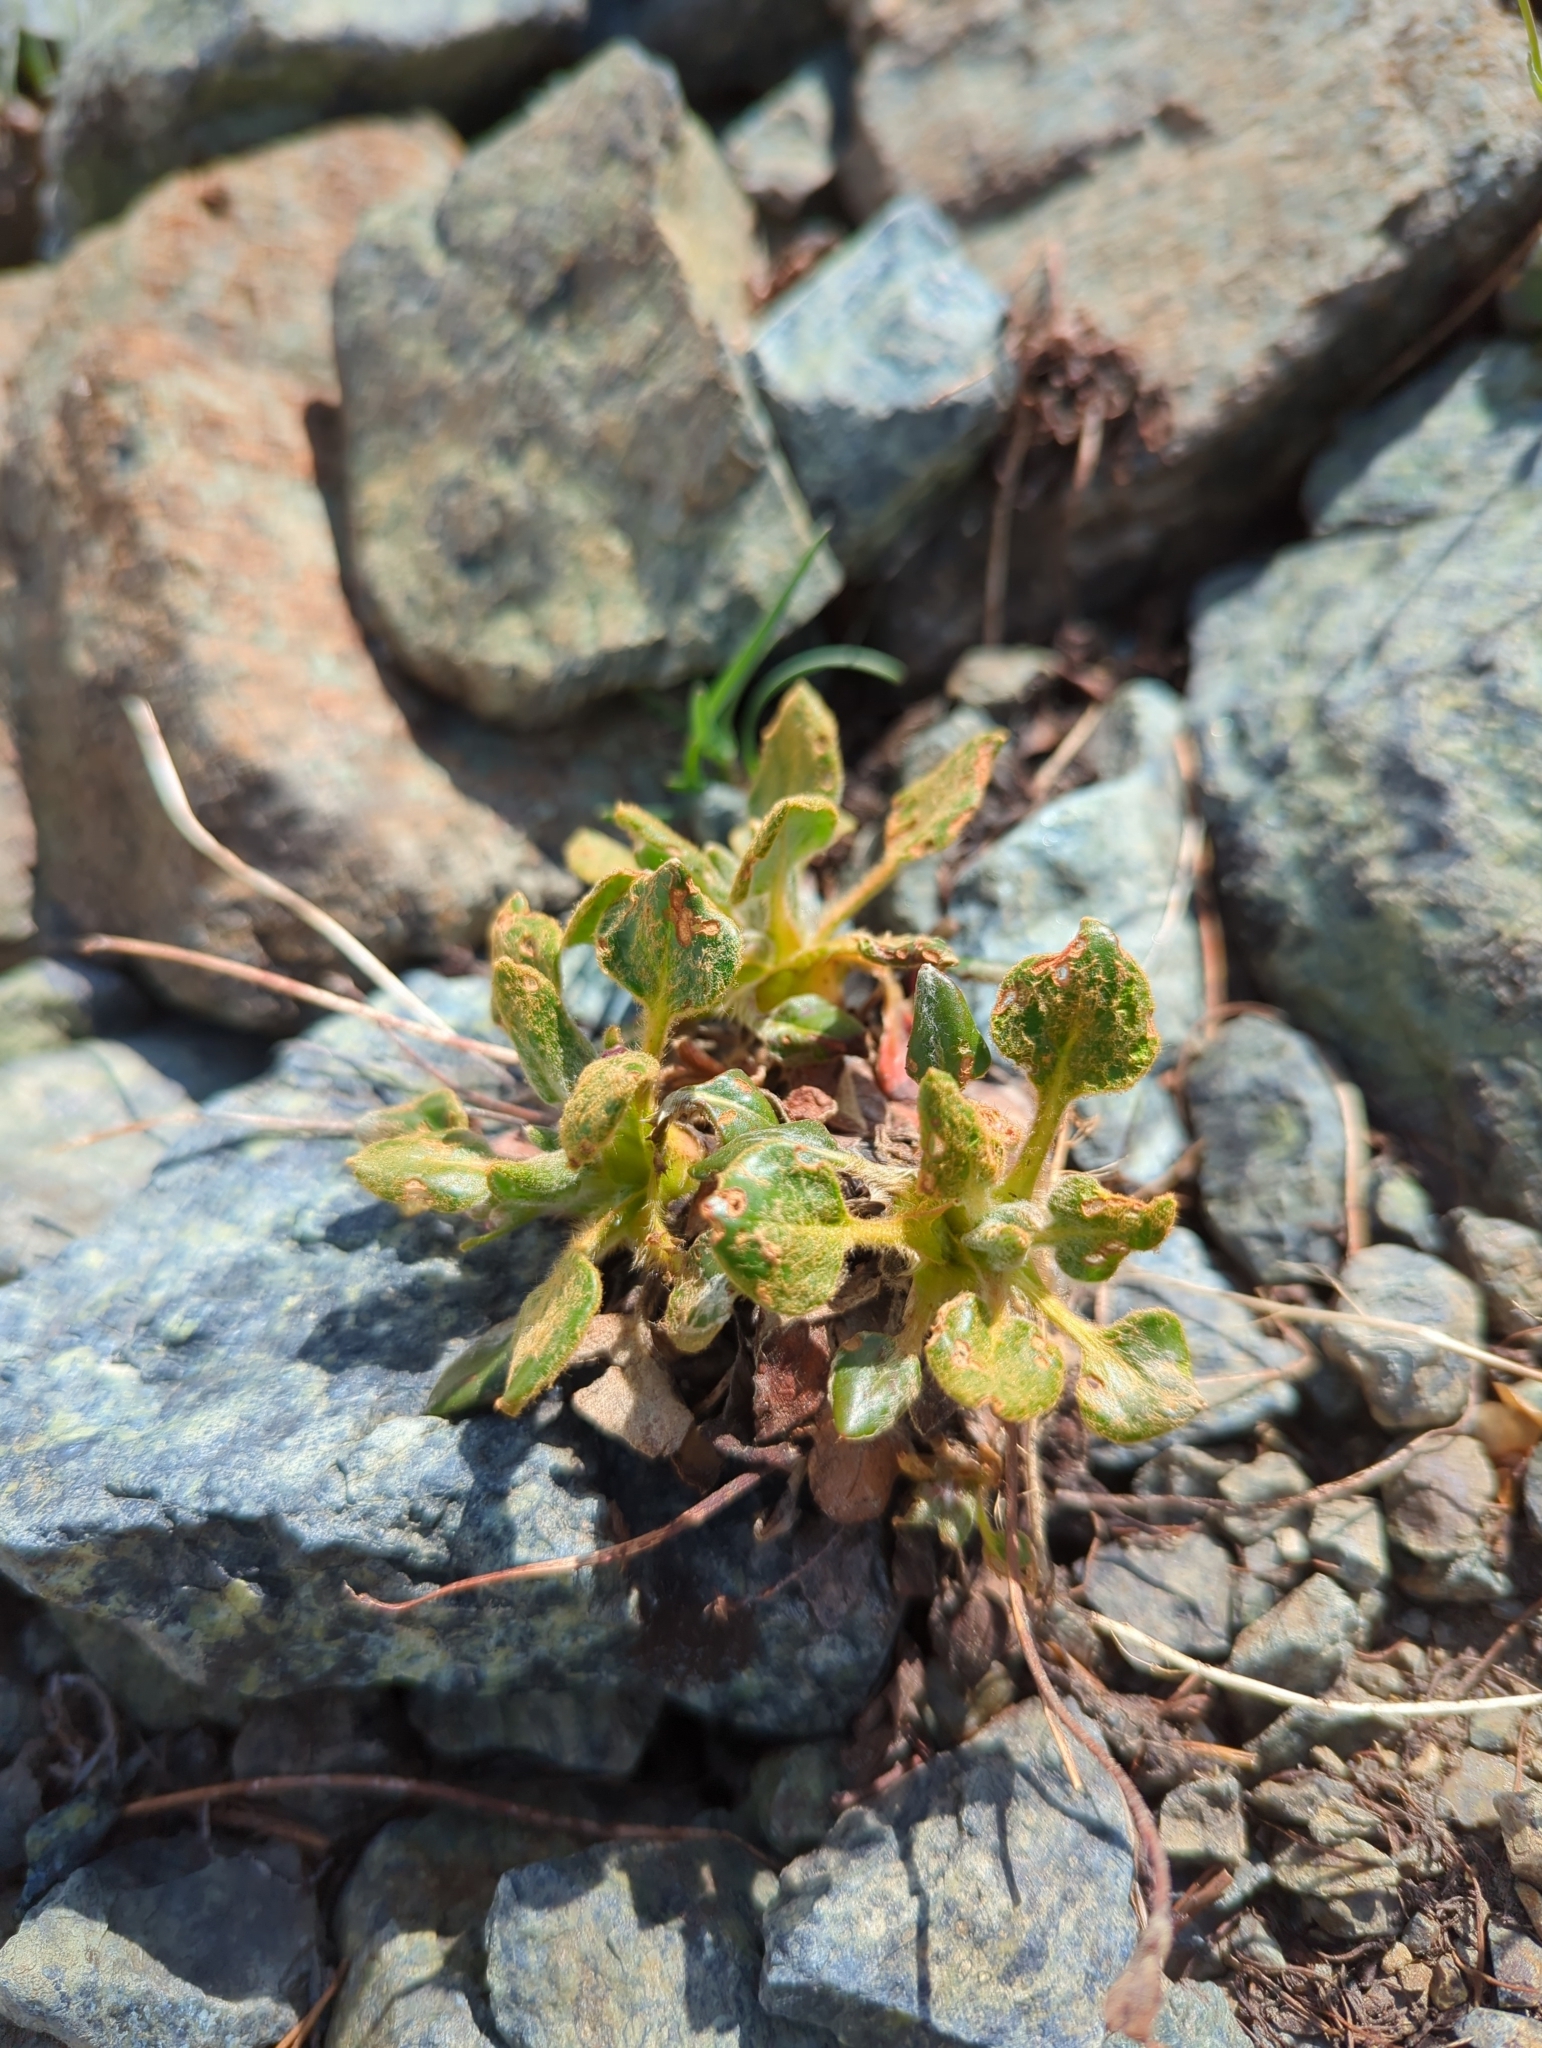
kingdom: Plantae
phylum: Tracheophyta
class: Magnoliopsida
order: Caryophyllales
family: Polygonaceae
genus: Eriogonum
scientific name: Eriogonum pyrolifolium
